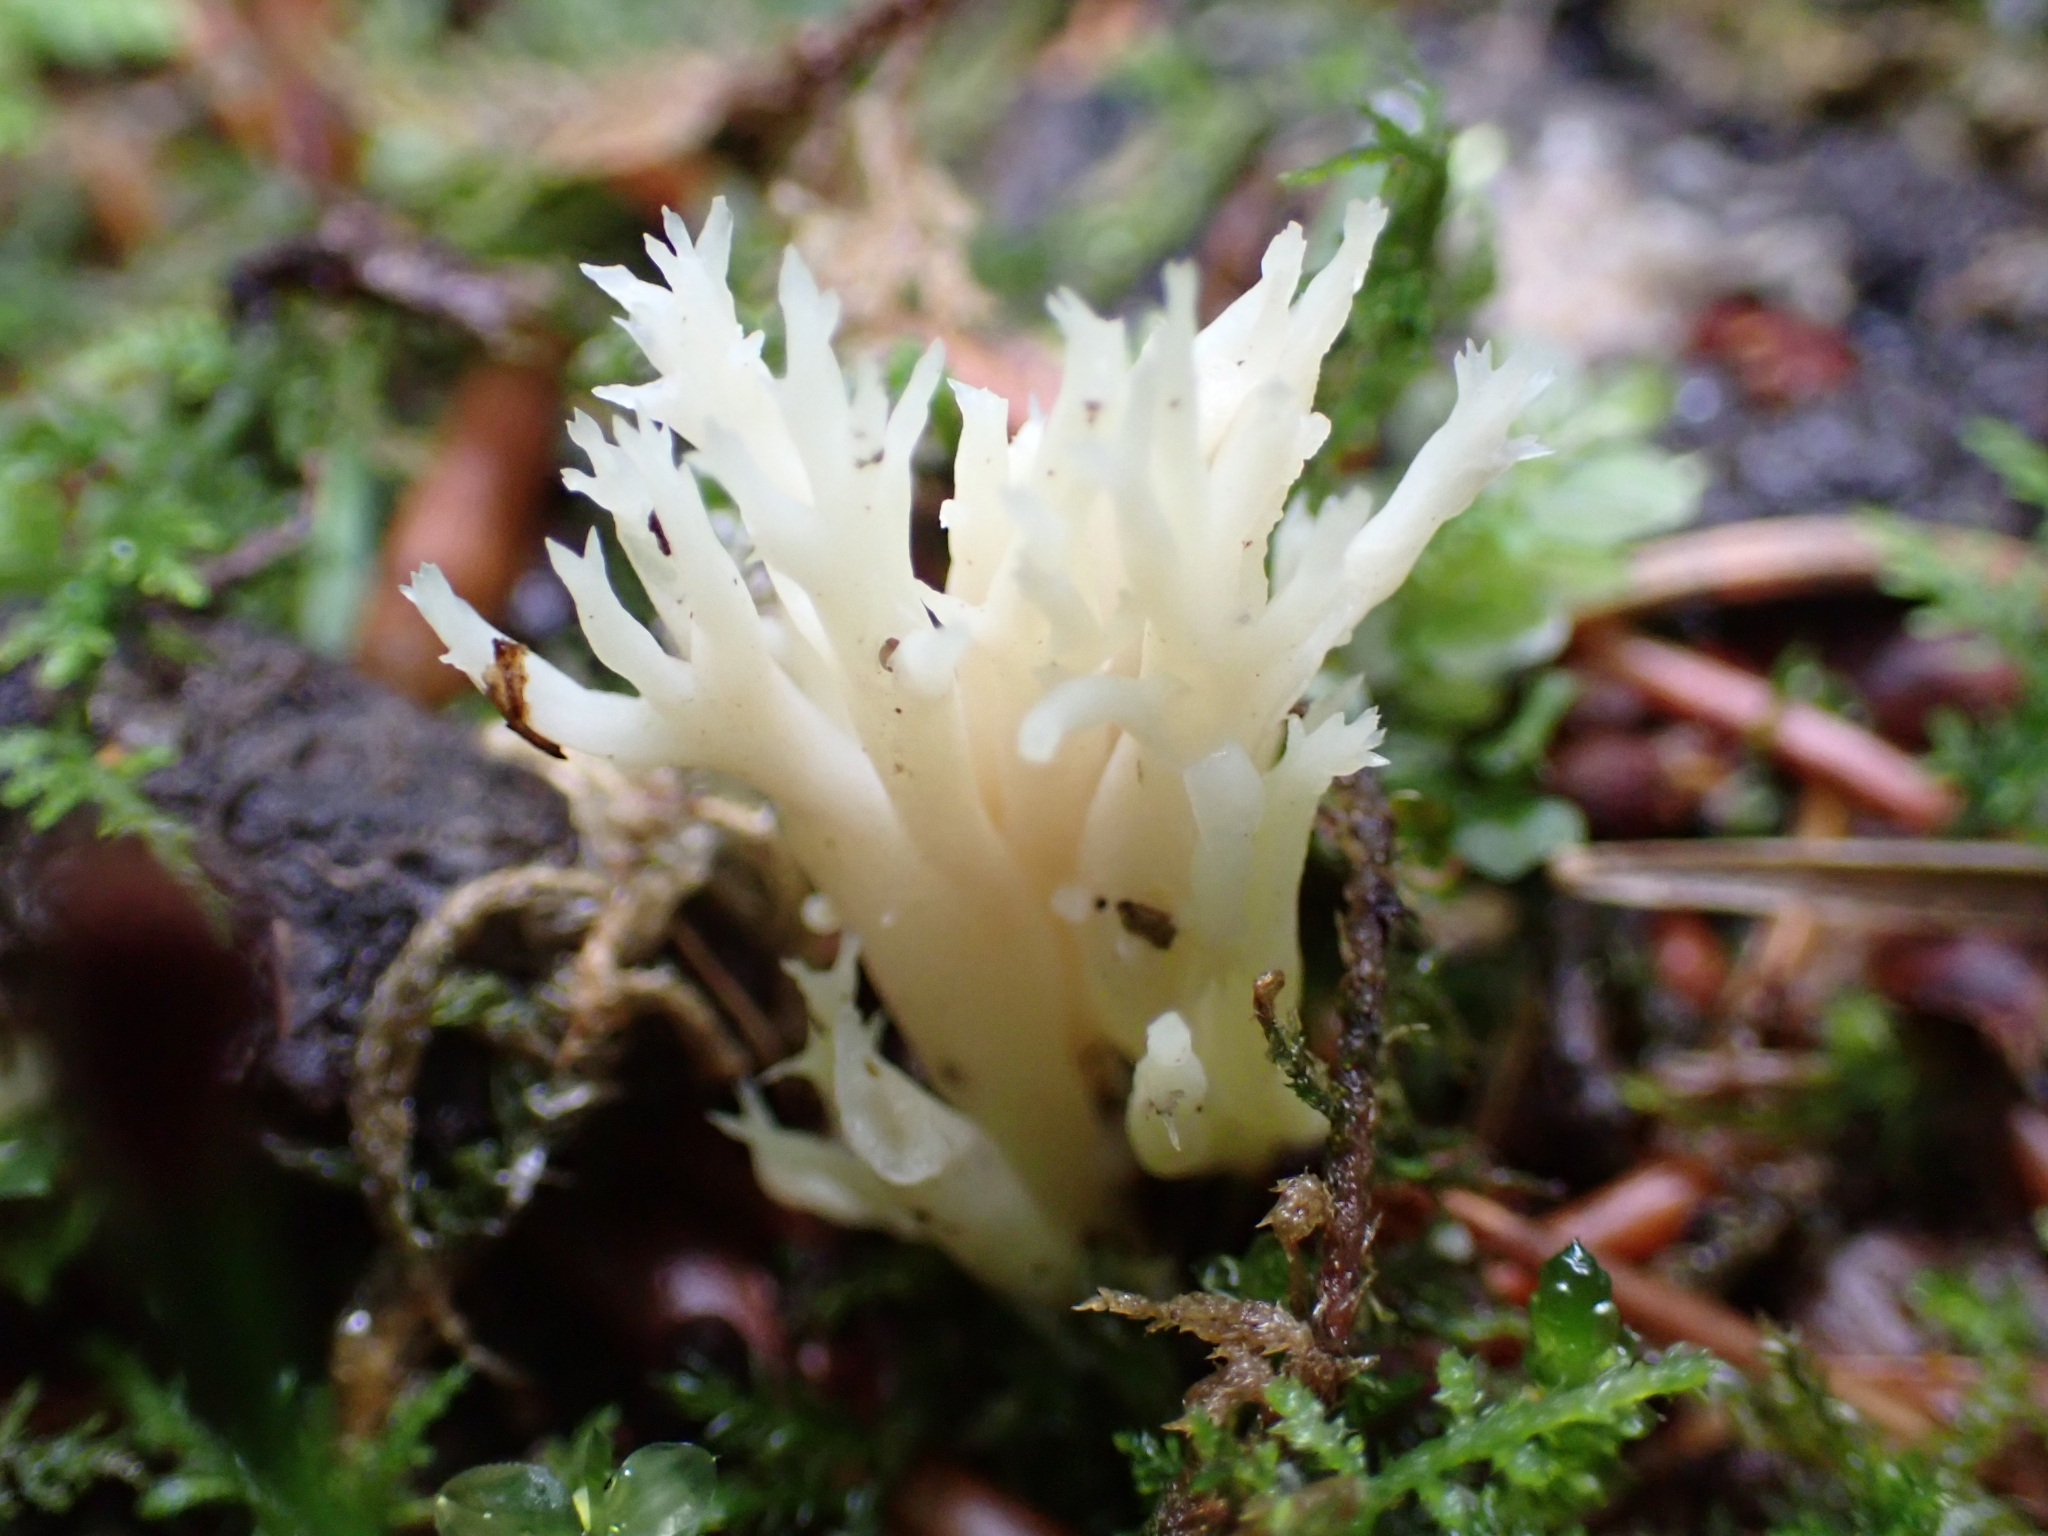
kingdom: Fungi
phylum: Basidiomycota
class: Agaricomycetes
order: Cantharellales
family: Hydnaceae
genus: Clavulina
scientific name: Clavulina coralloides
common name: Crested coral
